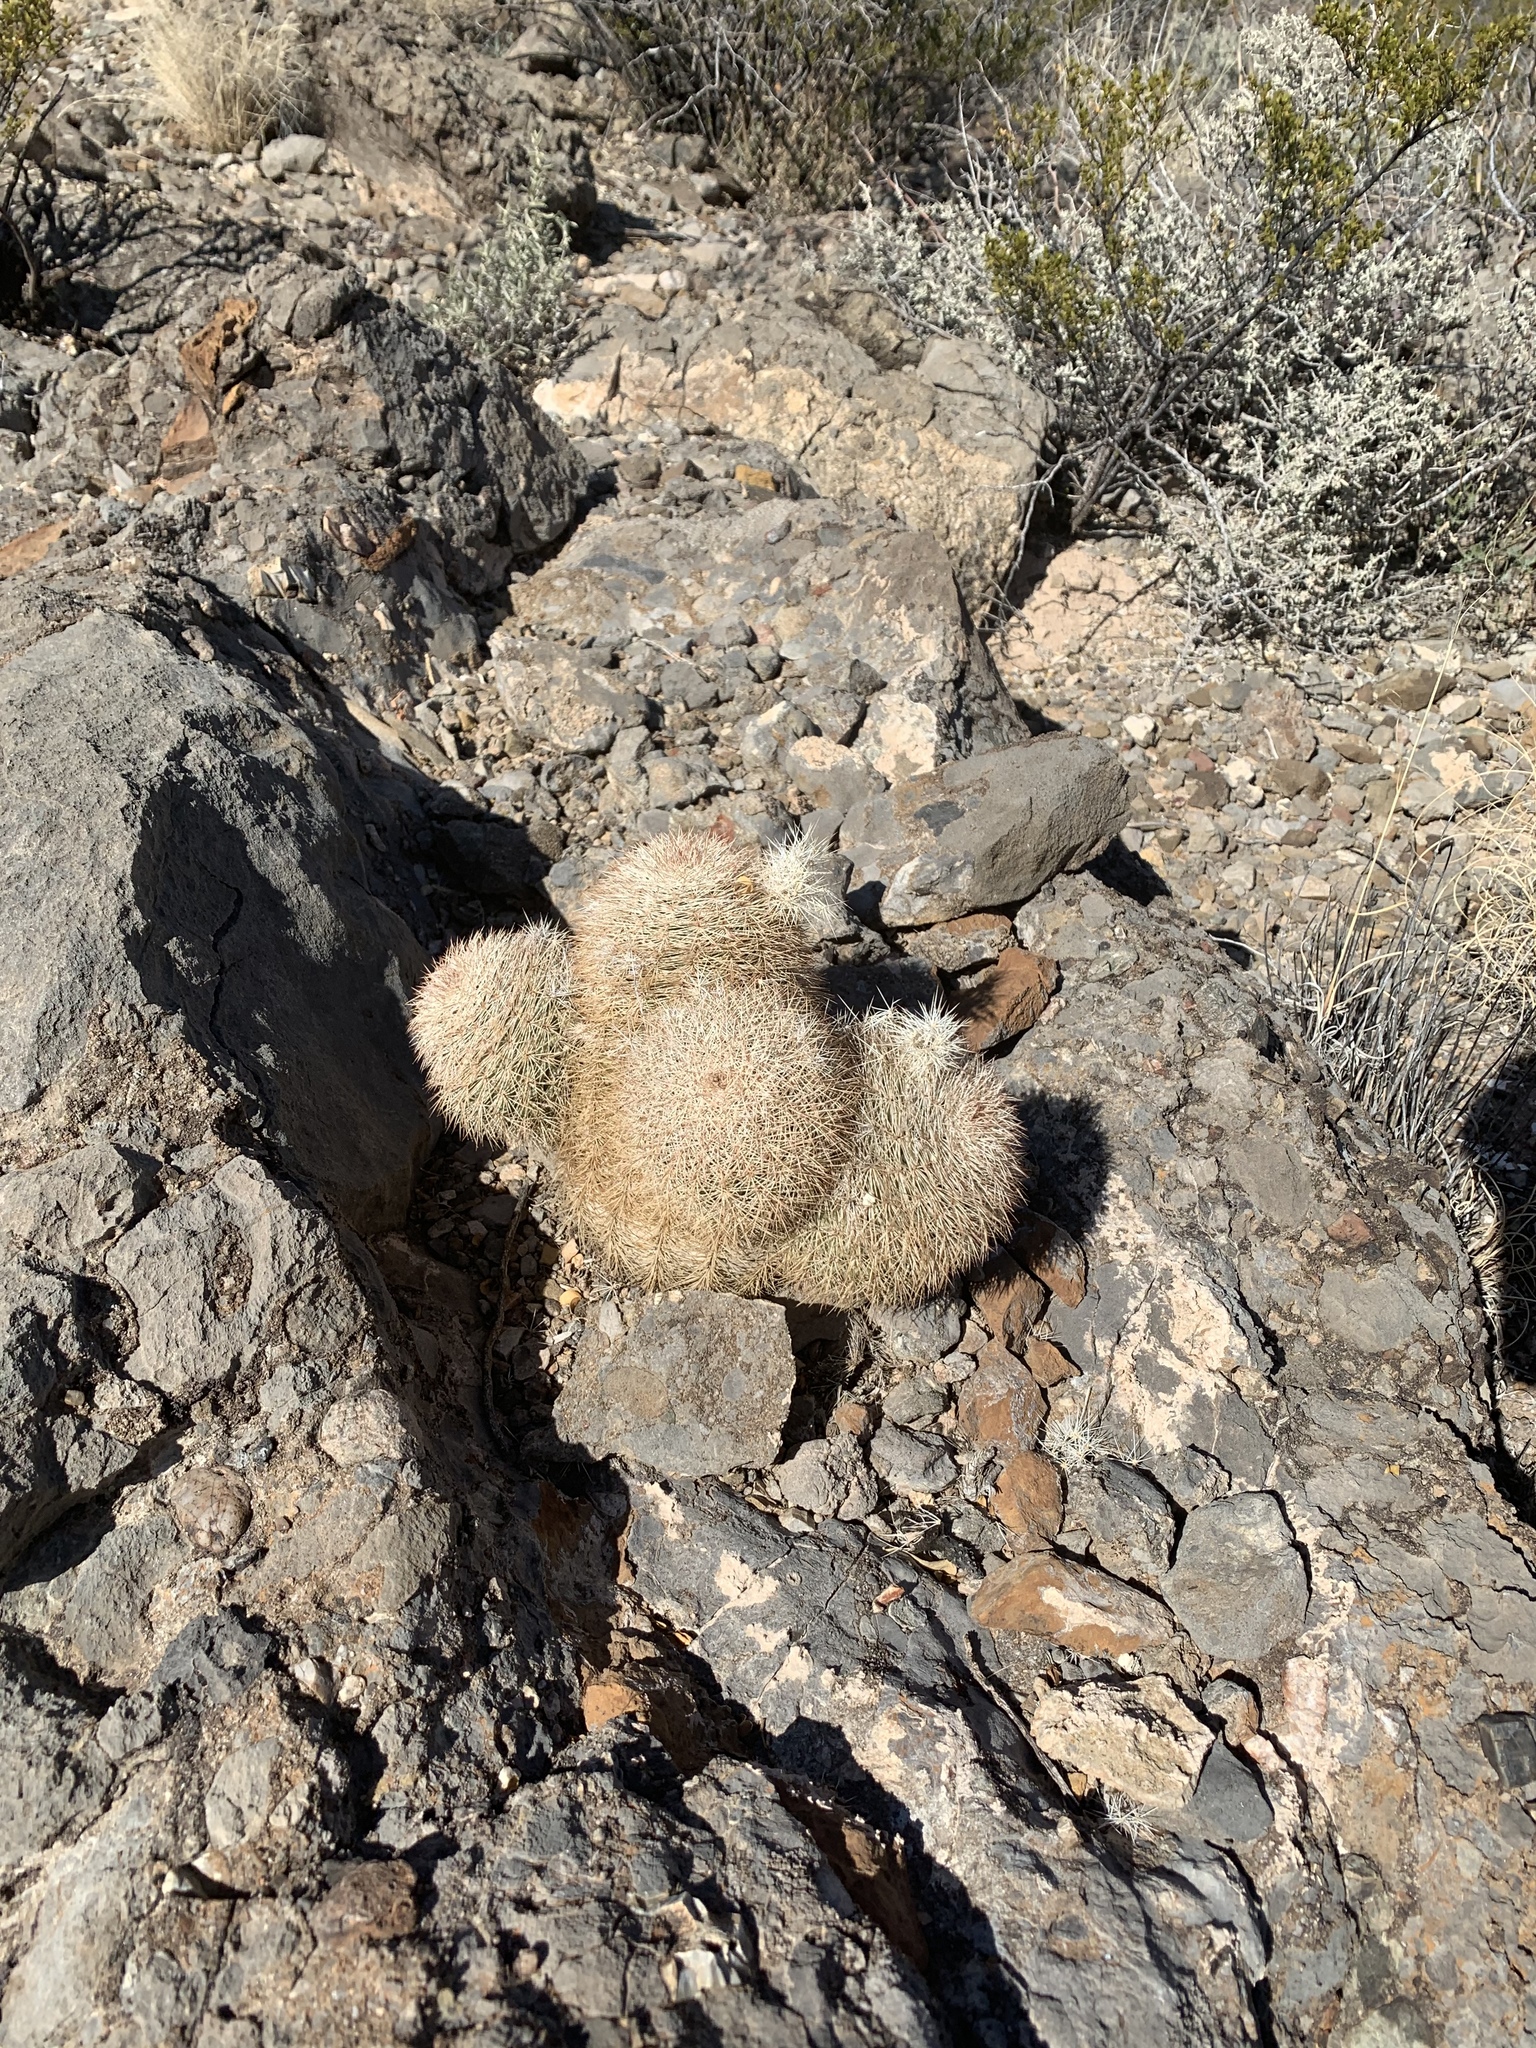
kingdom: Plantae
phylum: Tracheophyta
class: Magnoliopsida
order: Caryophyllales
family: Cactaceae
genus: Echinocereus
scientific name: Echinocereus dasyacanthus
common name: Spiny hedgehog cactus
